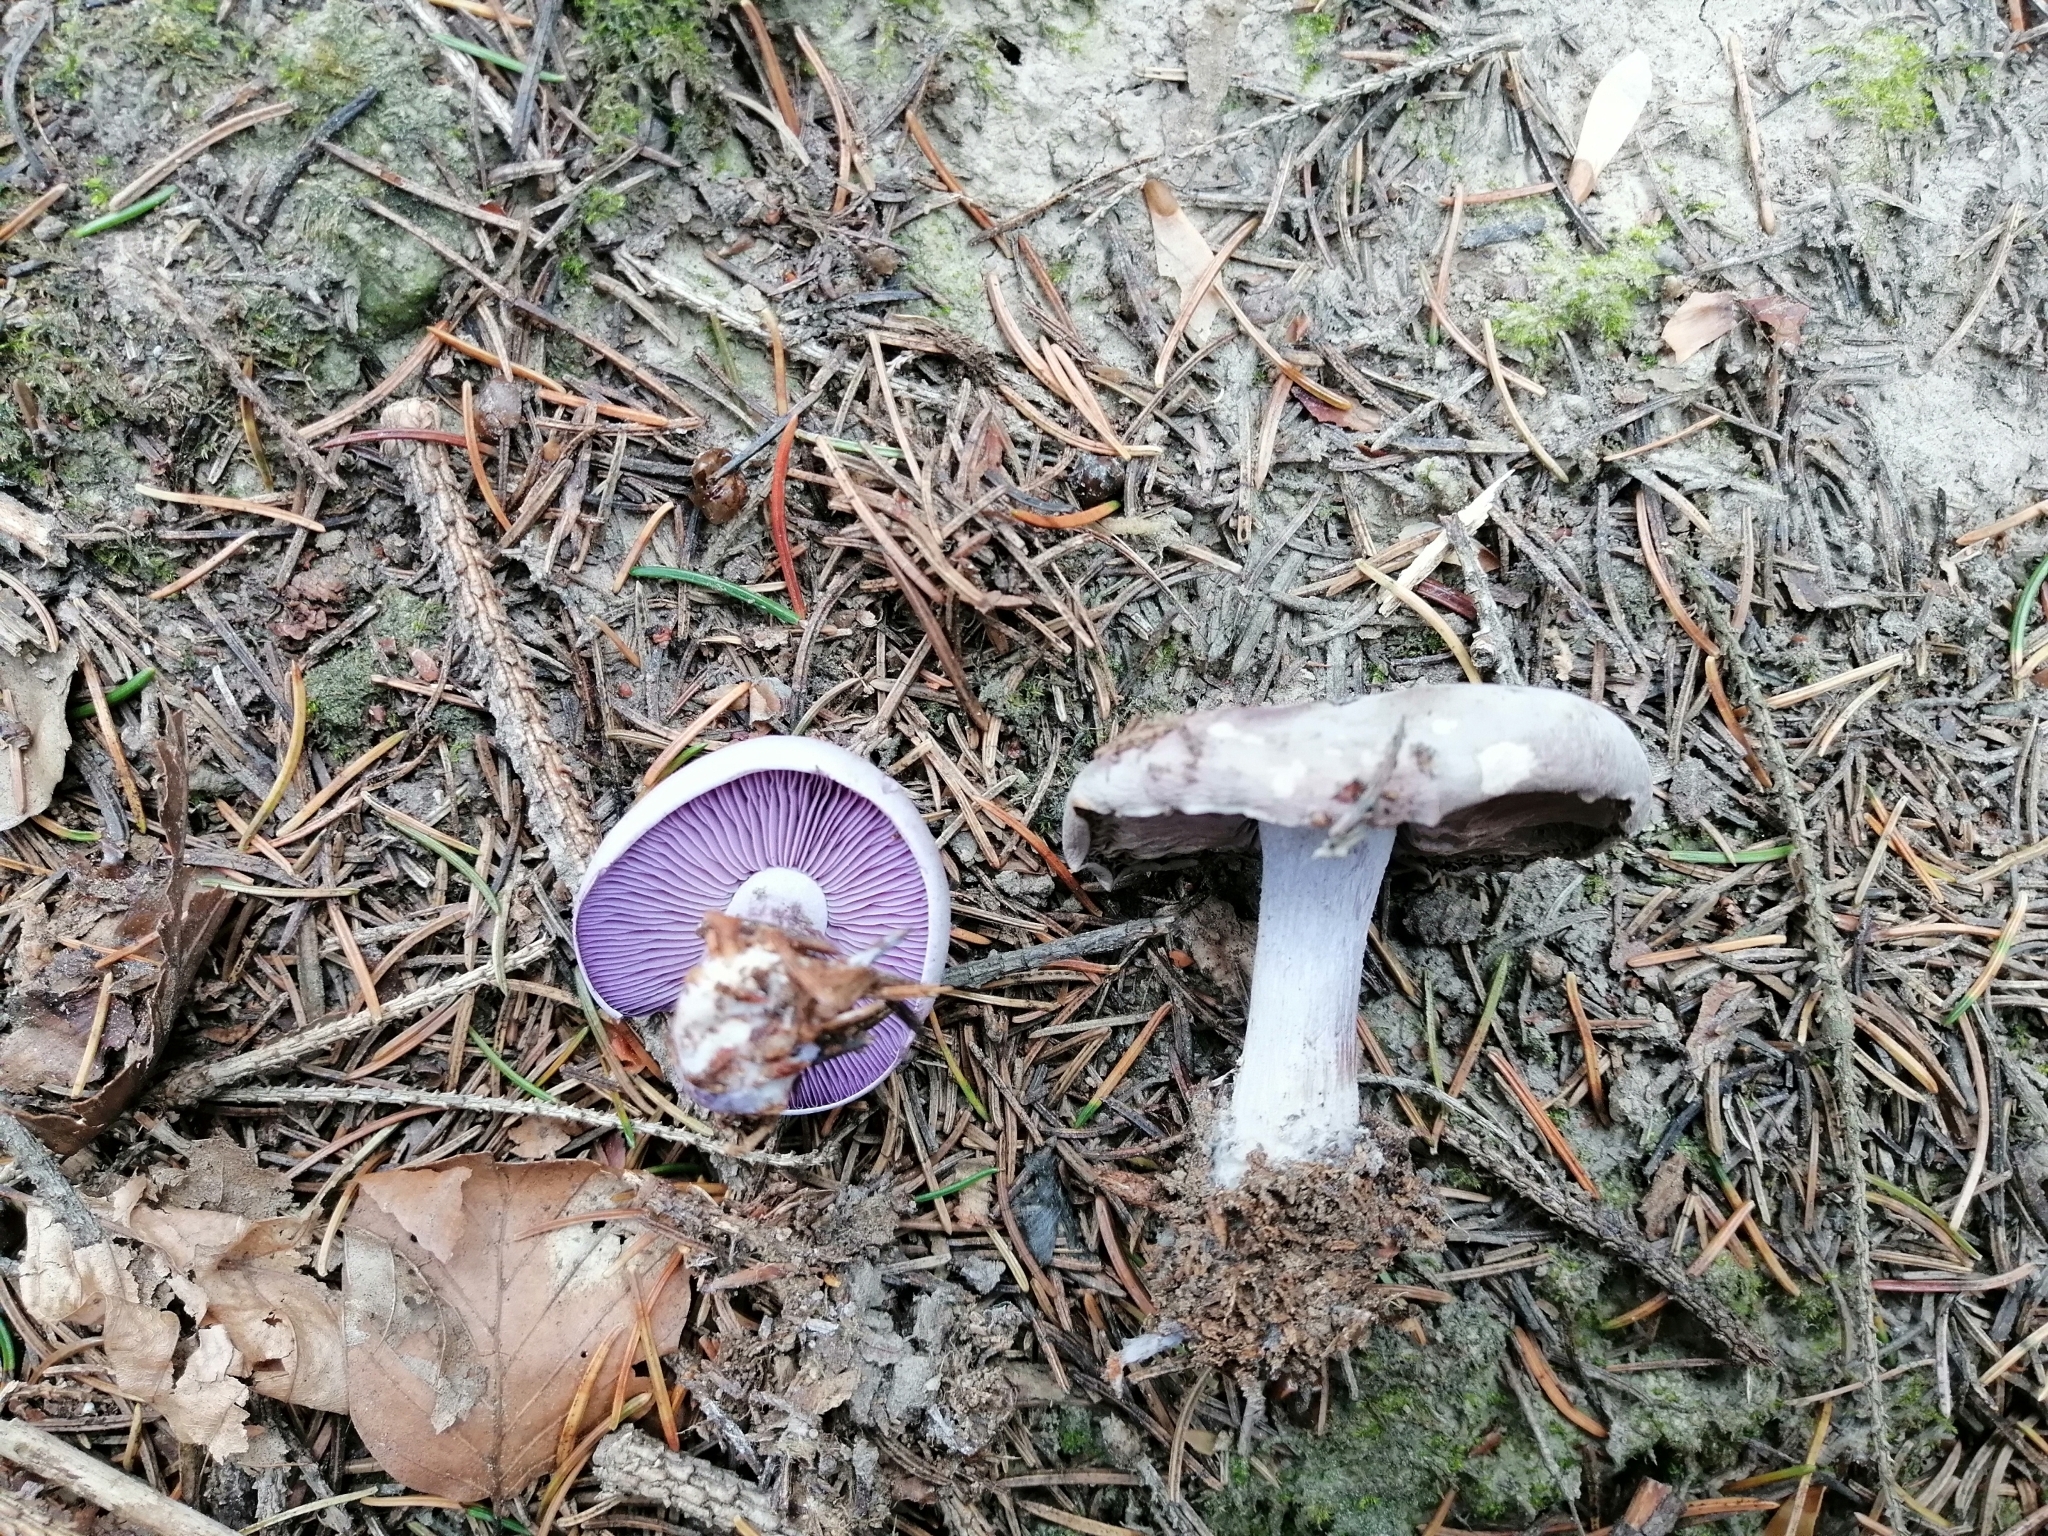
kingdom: Fungi
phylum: Basidiomycota
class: Agaricomycetes
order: Agaricales
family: Tricholomataceae
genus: Collybia
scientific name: Collybia
